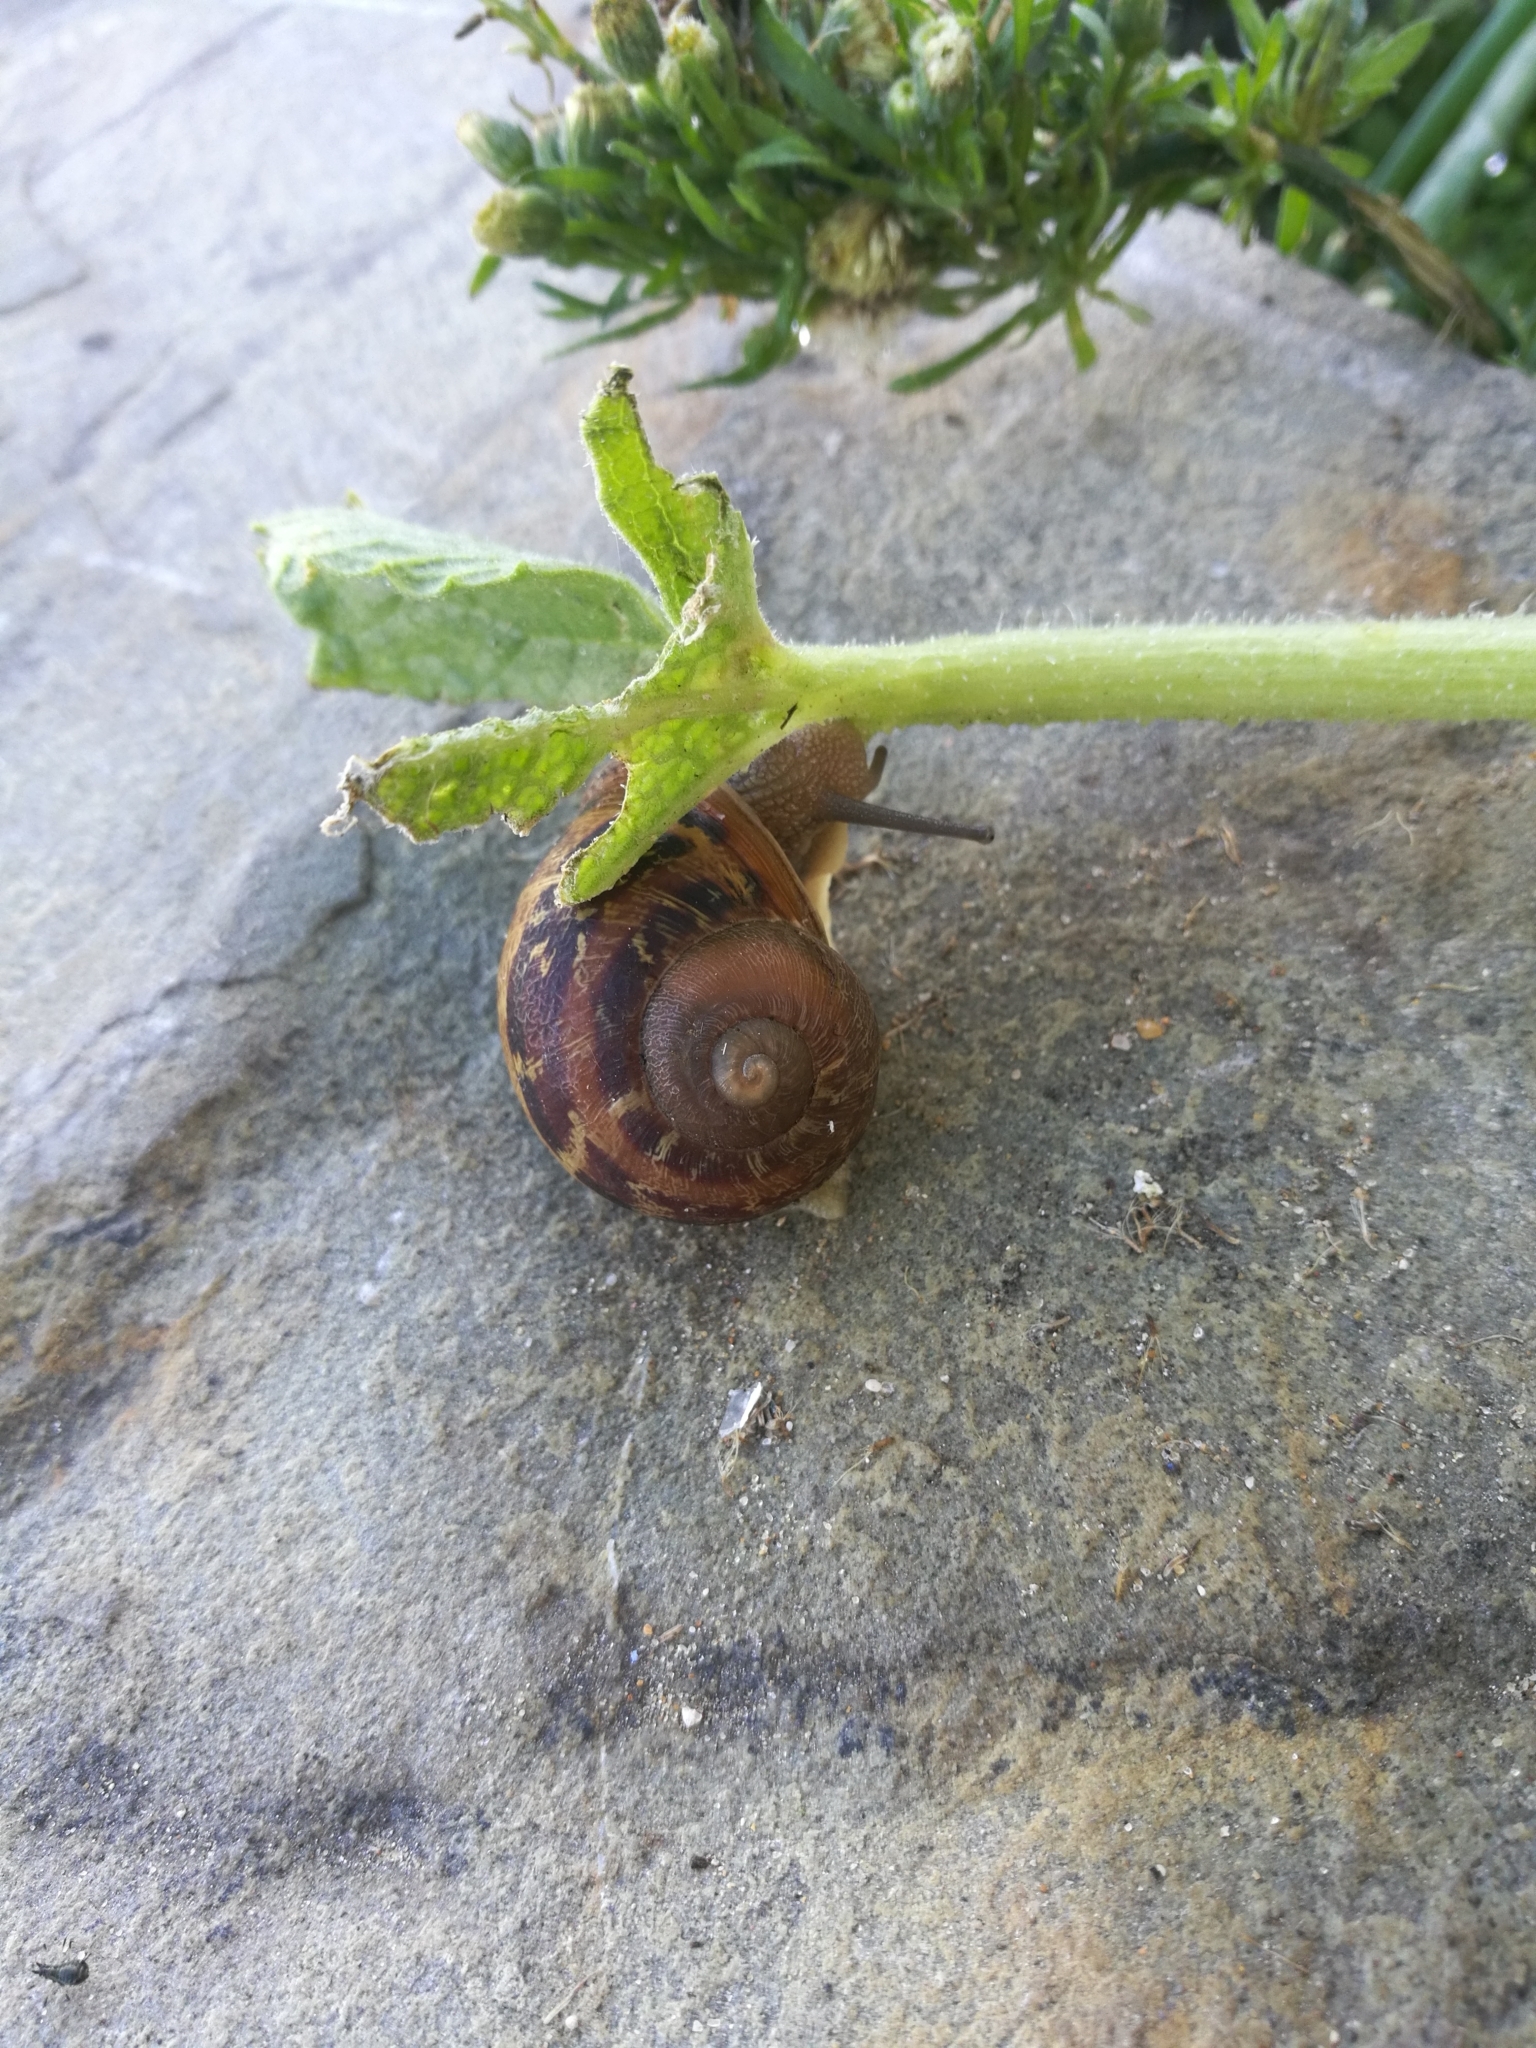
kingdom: Animalia
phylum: Mollusca
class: Gastropoda
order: Stylommatophora
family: Helicidae
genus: Cornu
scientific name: Cornu aspersum
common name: Brown garden snail
